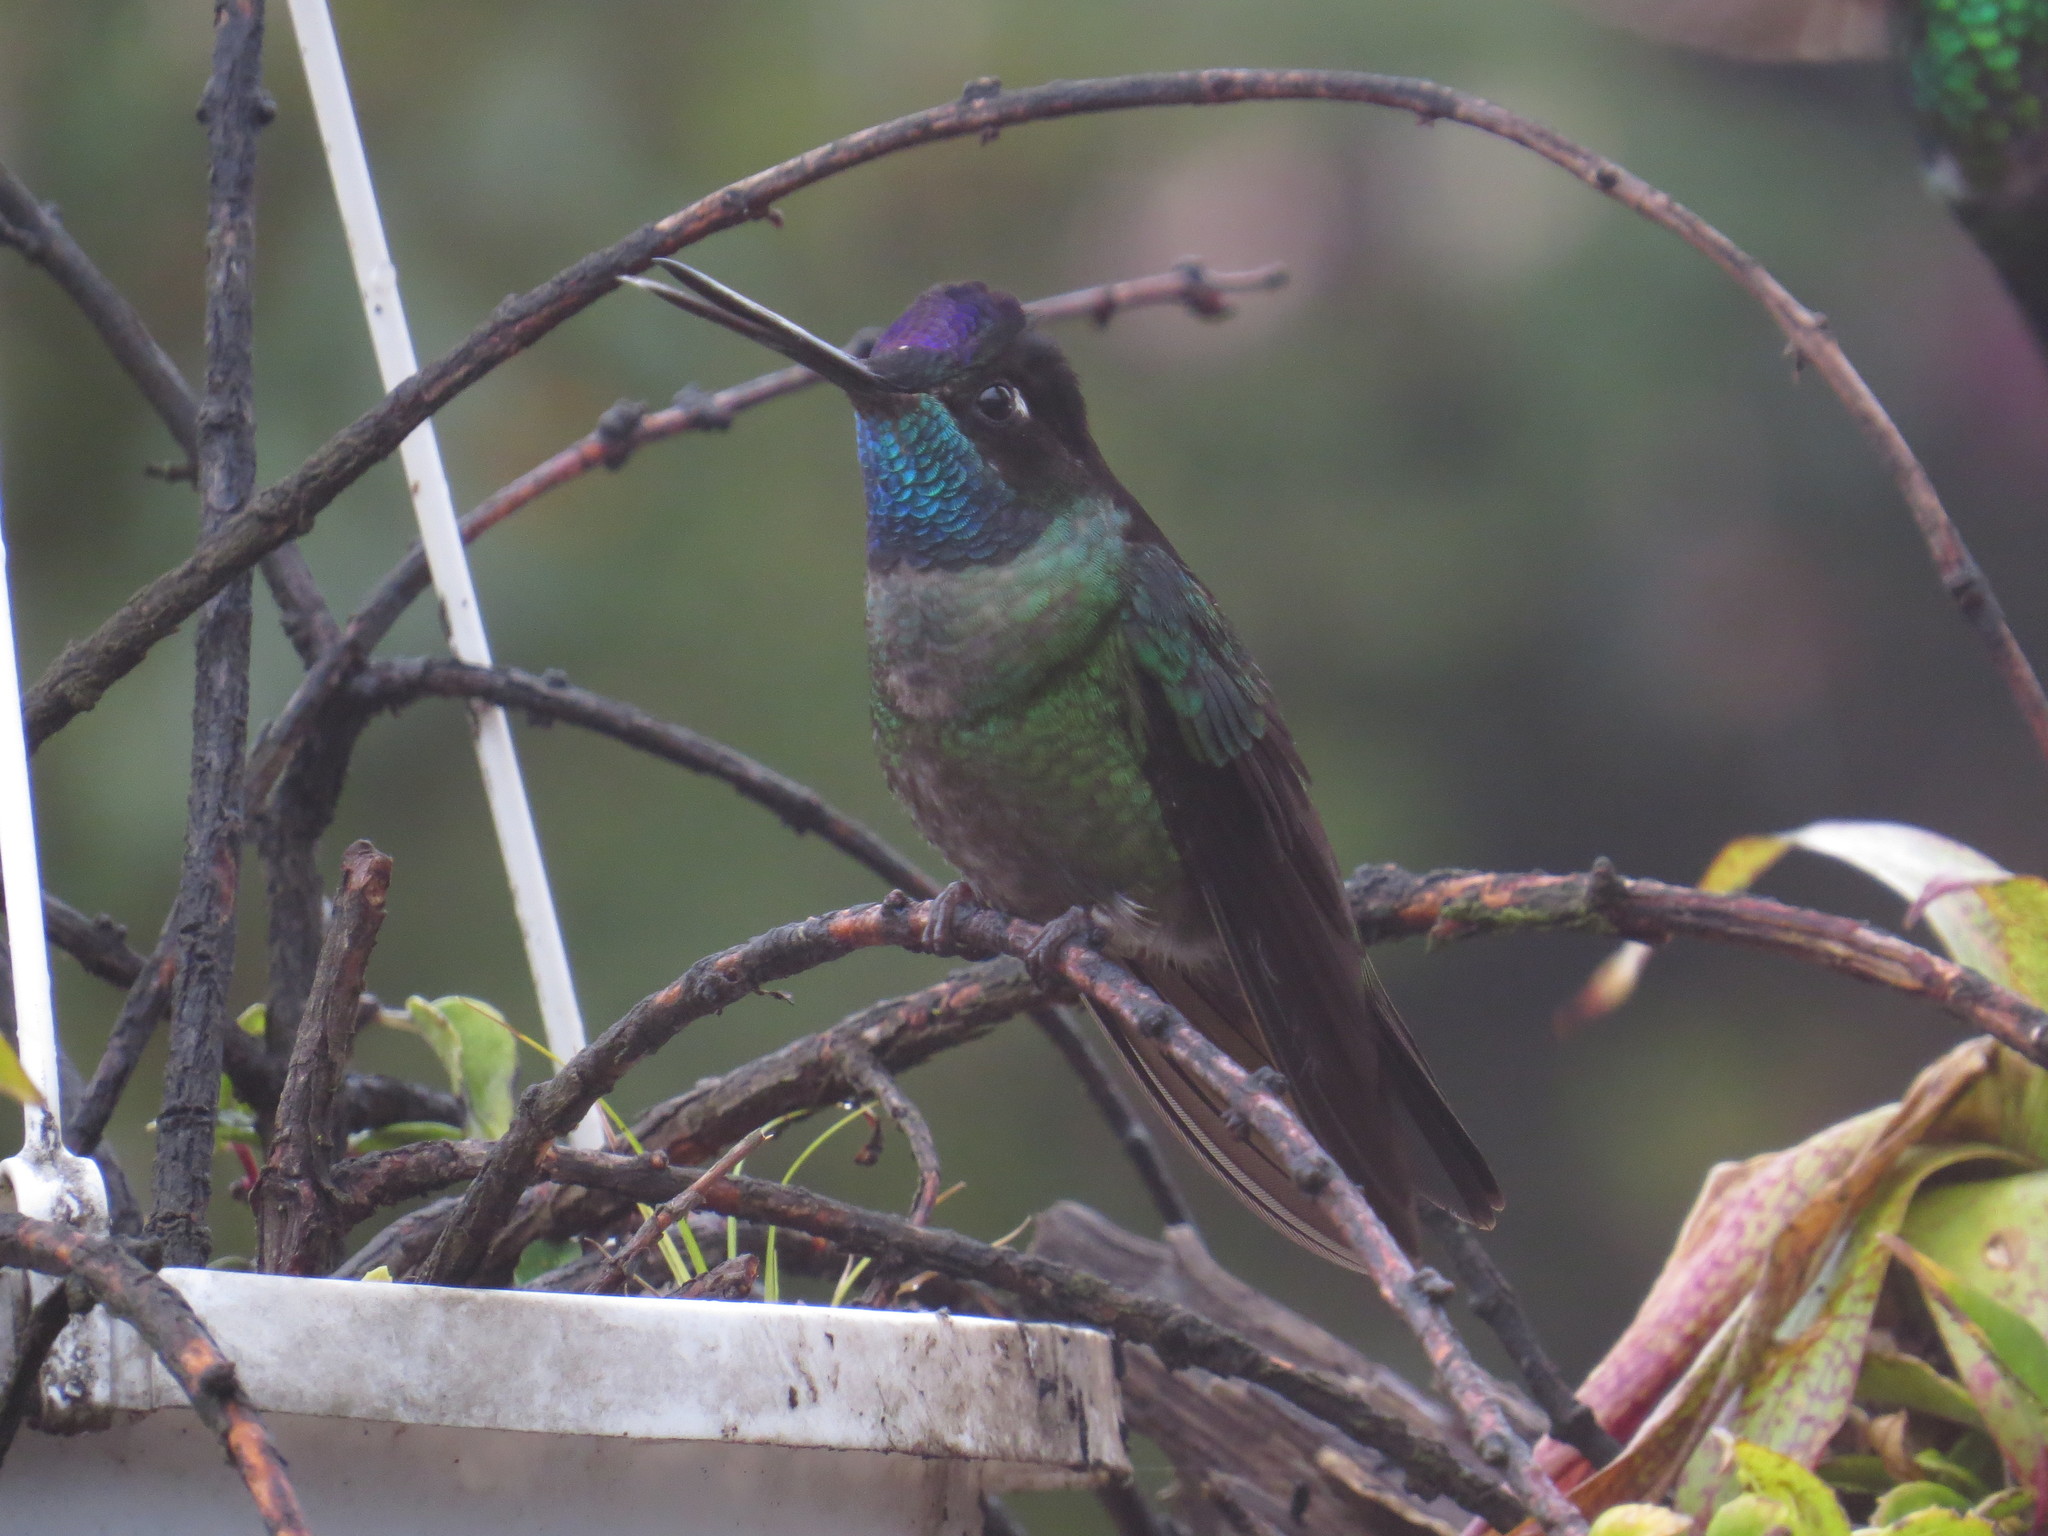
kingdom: Animalia
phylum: Chordata
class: Aves
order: Apodiformes
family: Trochilidae
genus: Eugenes
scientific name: Eugenes spectabilis
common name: Talamanca hummingbird
